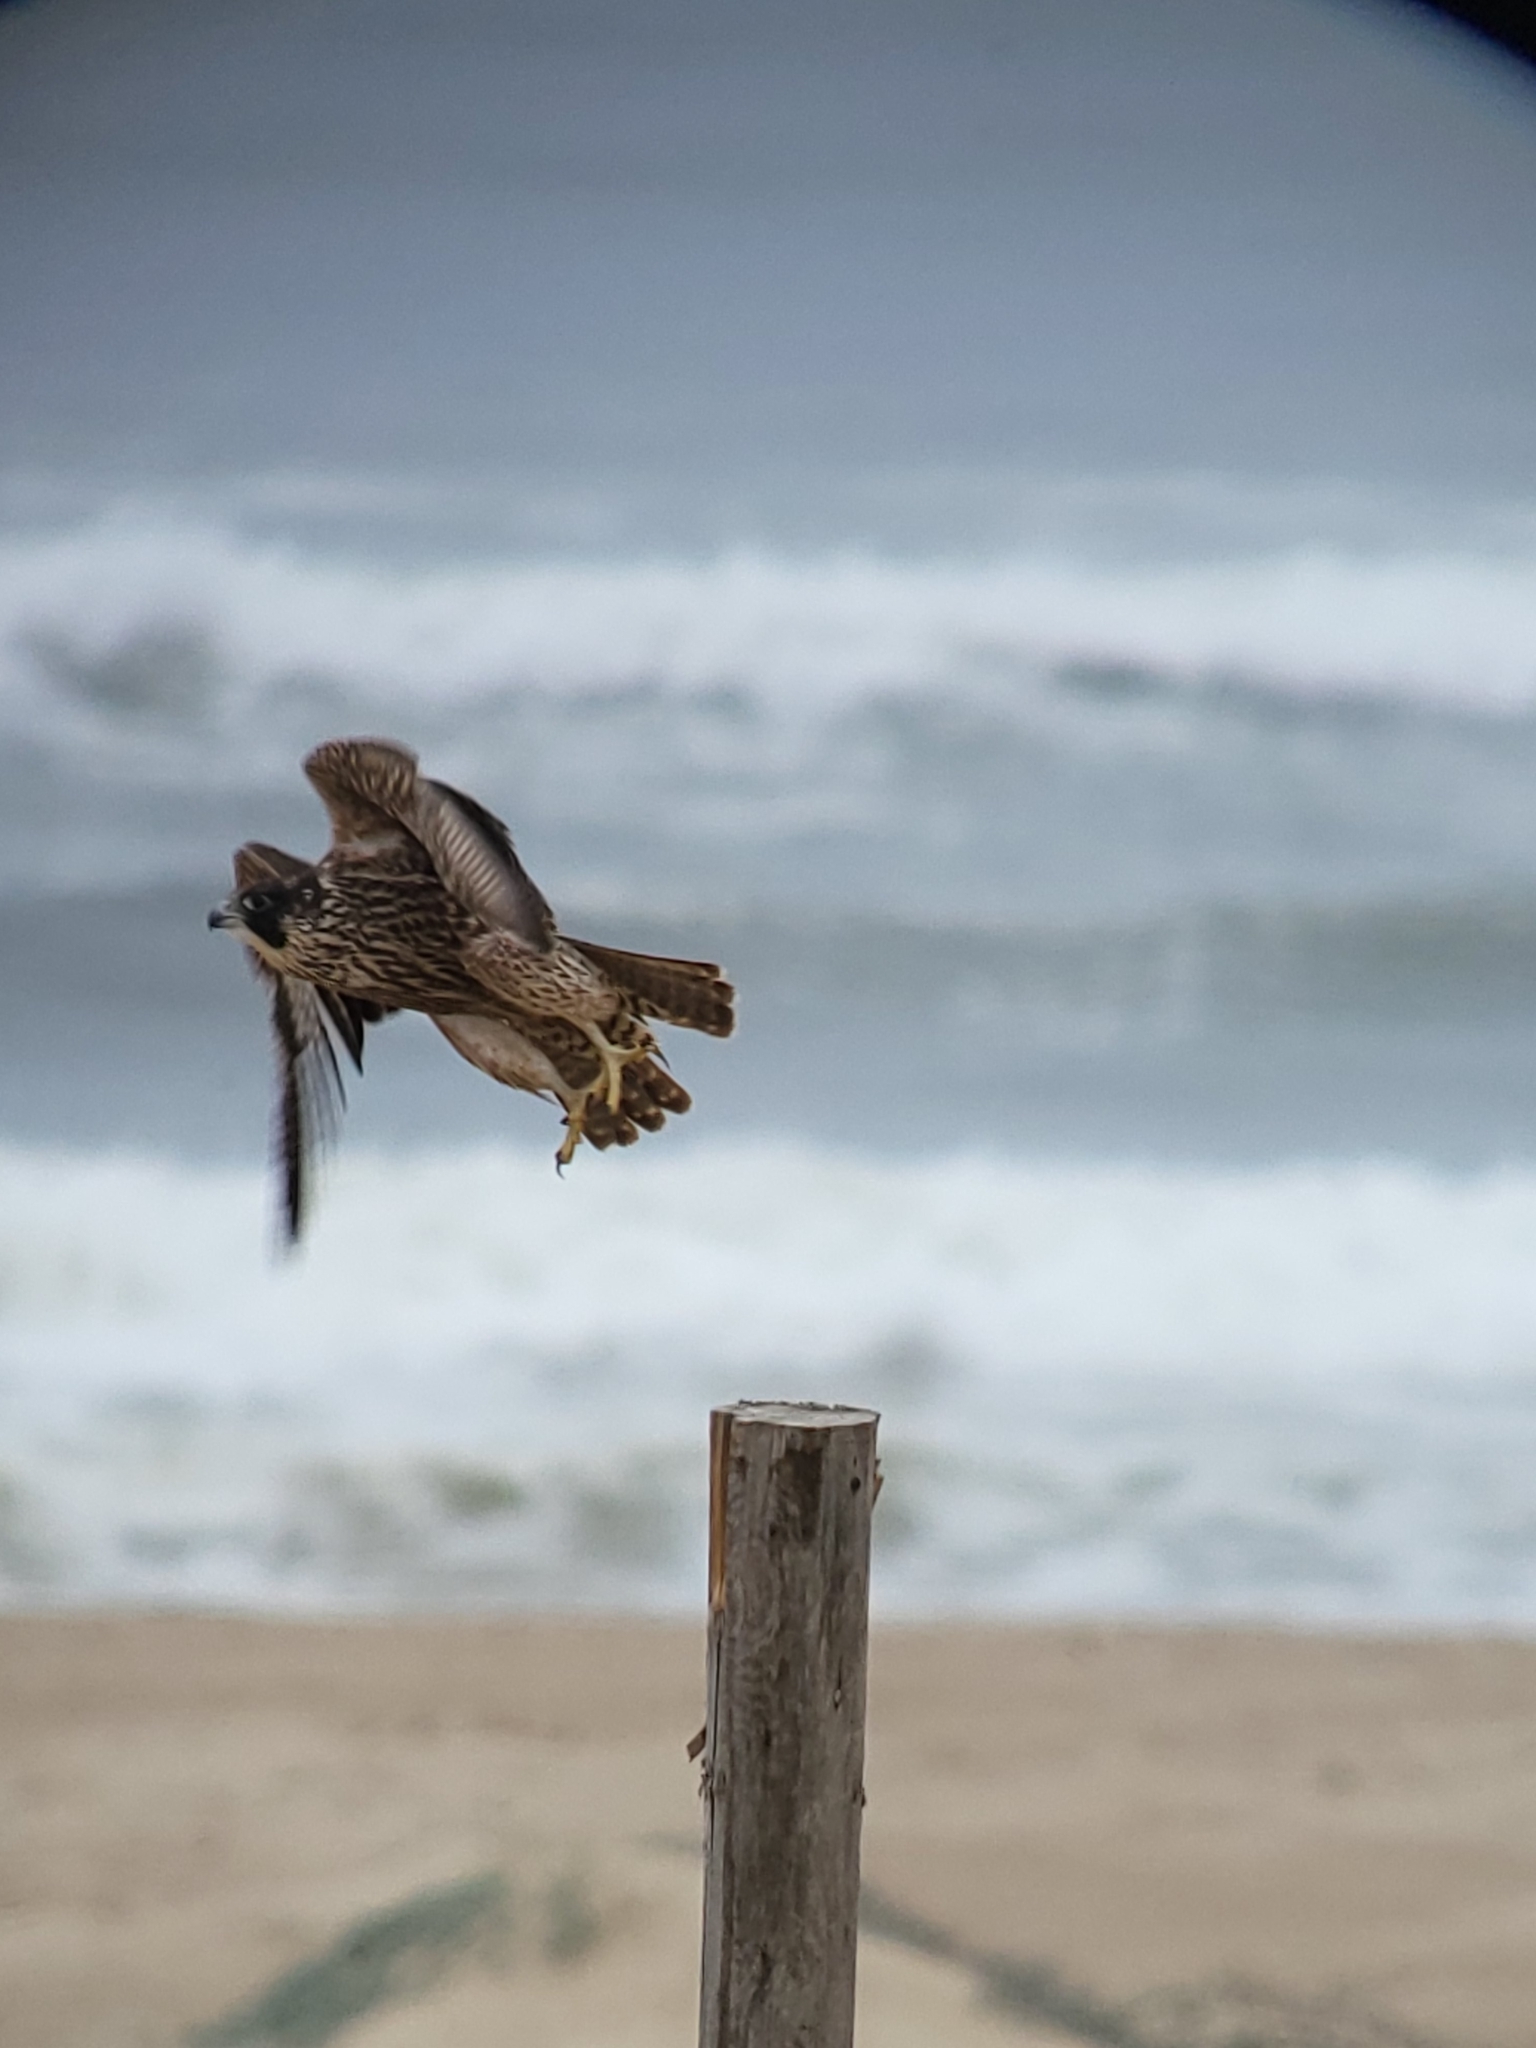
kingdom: Animalia
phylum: Chordata
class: Aves
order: Falconiformes
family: Falconidae
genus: Falco
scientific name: Falco peregrinus
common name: Peregrine falcon
